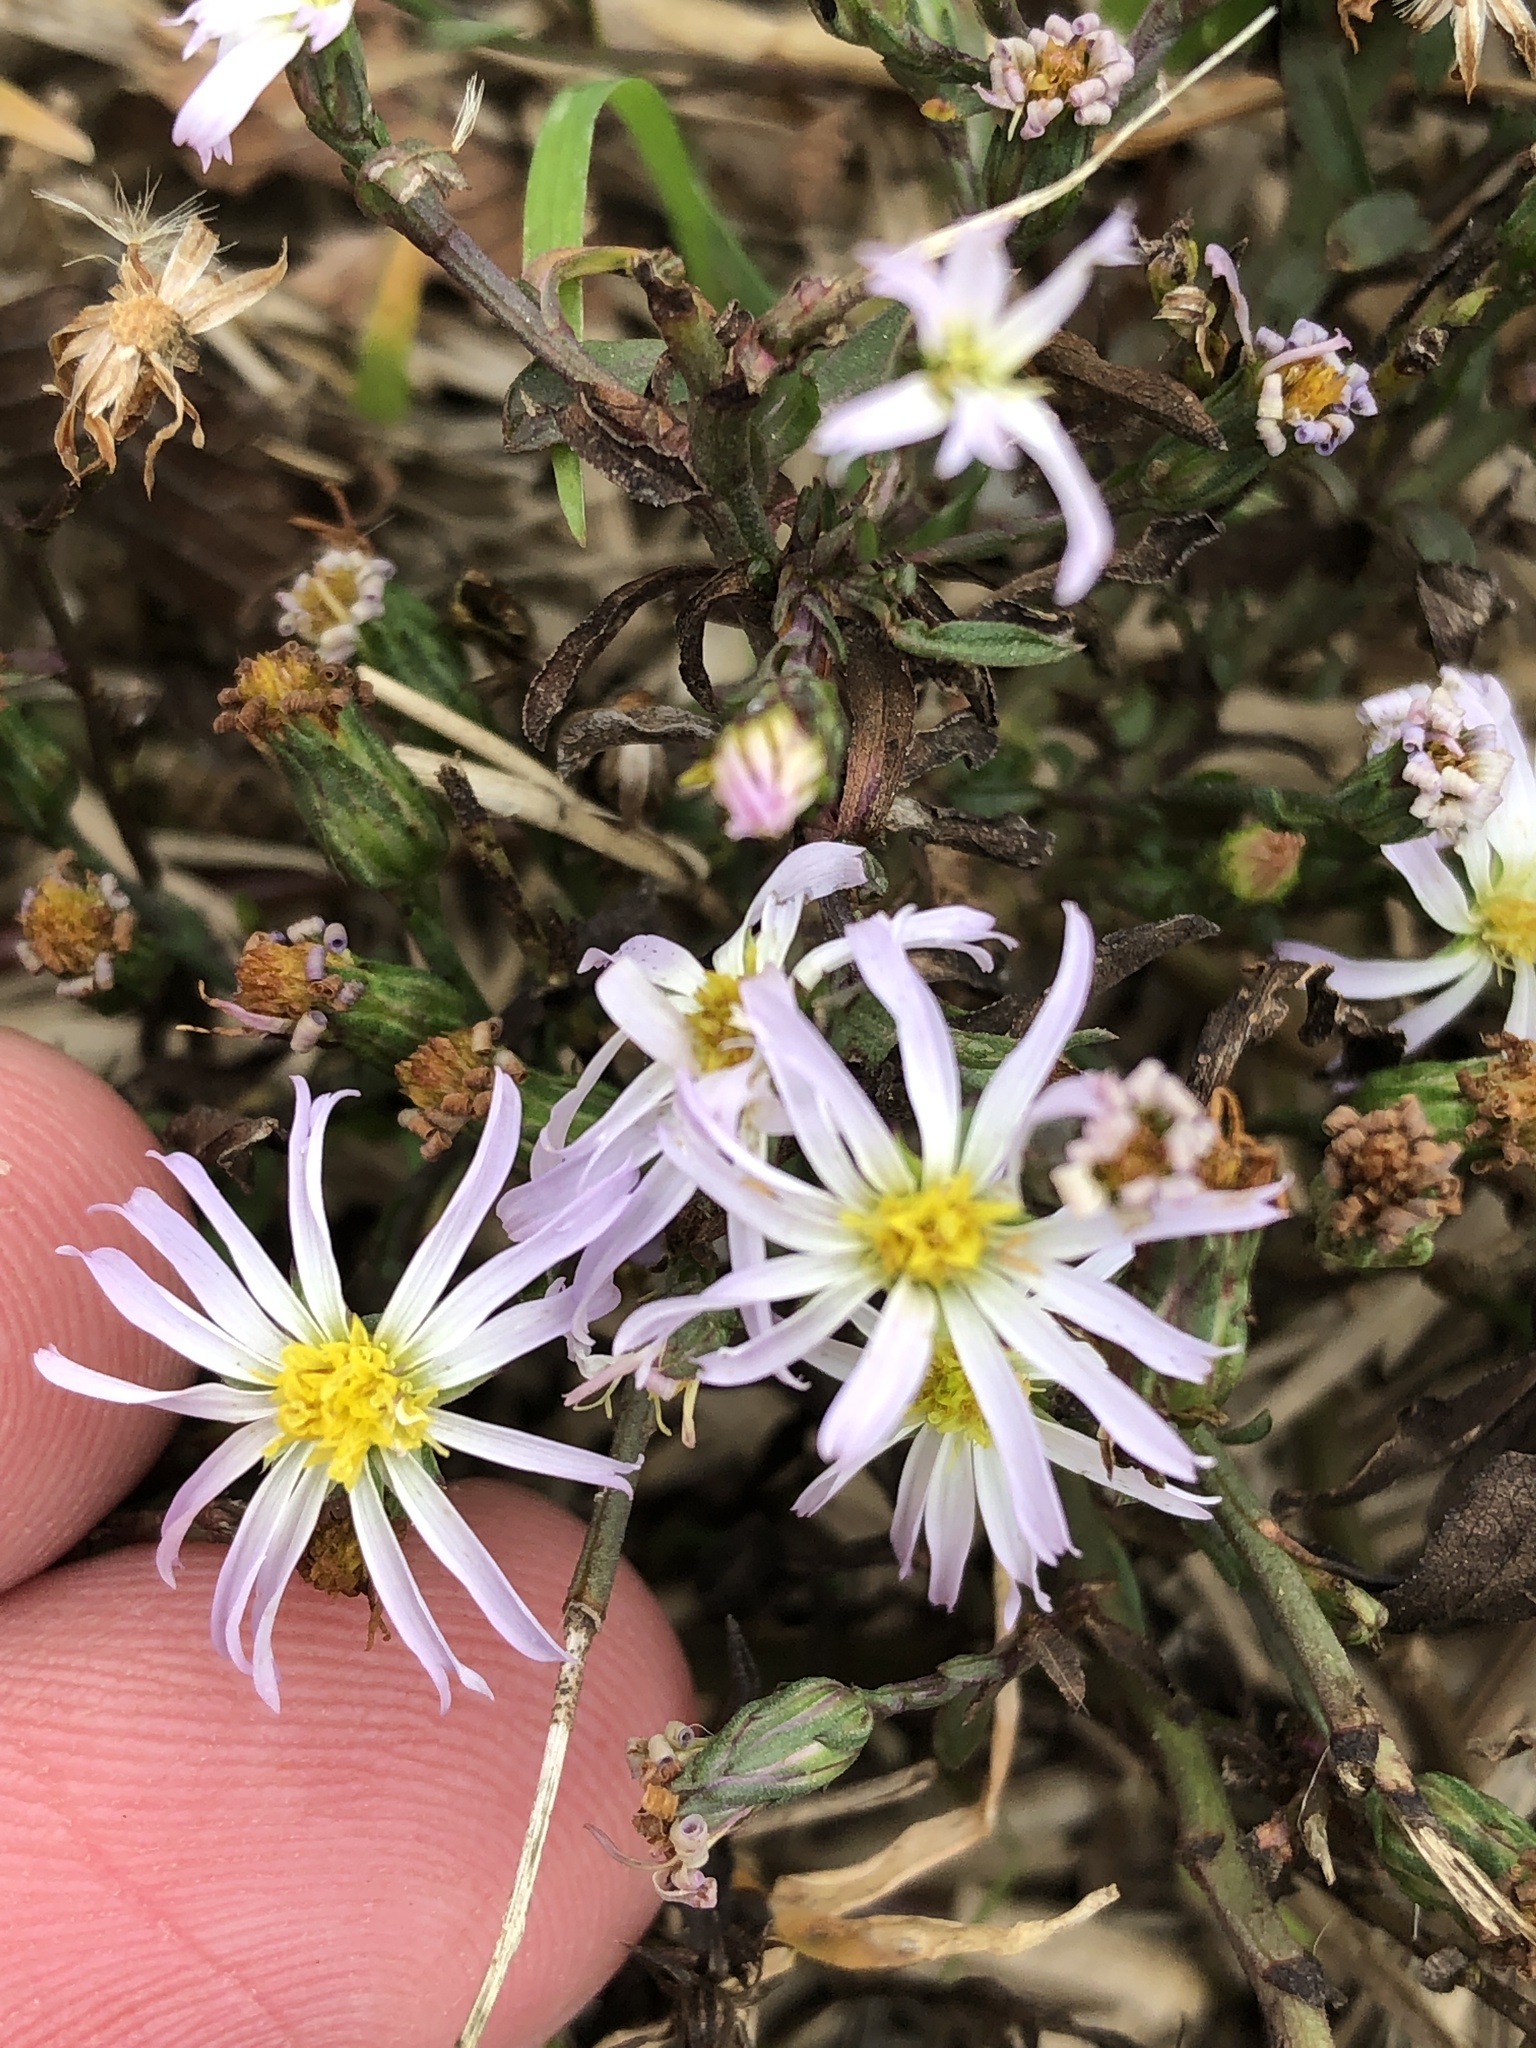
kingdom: Plantae
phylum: Tracheophyta
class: Magnoliopsida
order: Asterales
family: Asteraceae
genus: Symphyotrichum
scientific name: Symphyotrichum divaricatum
